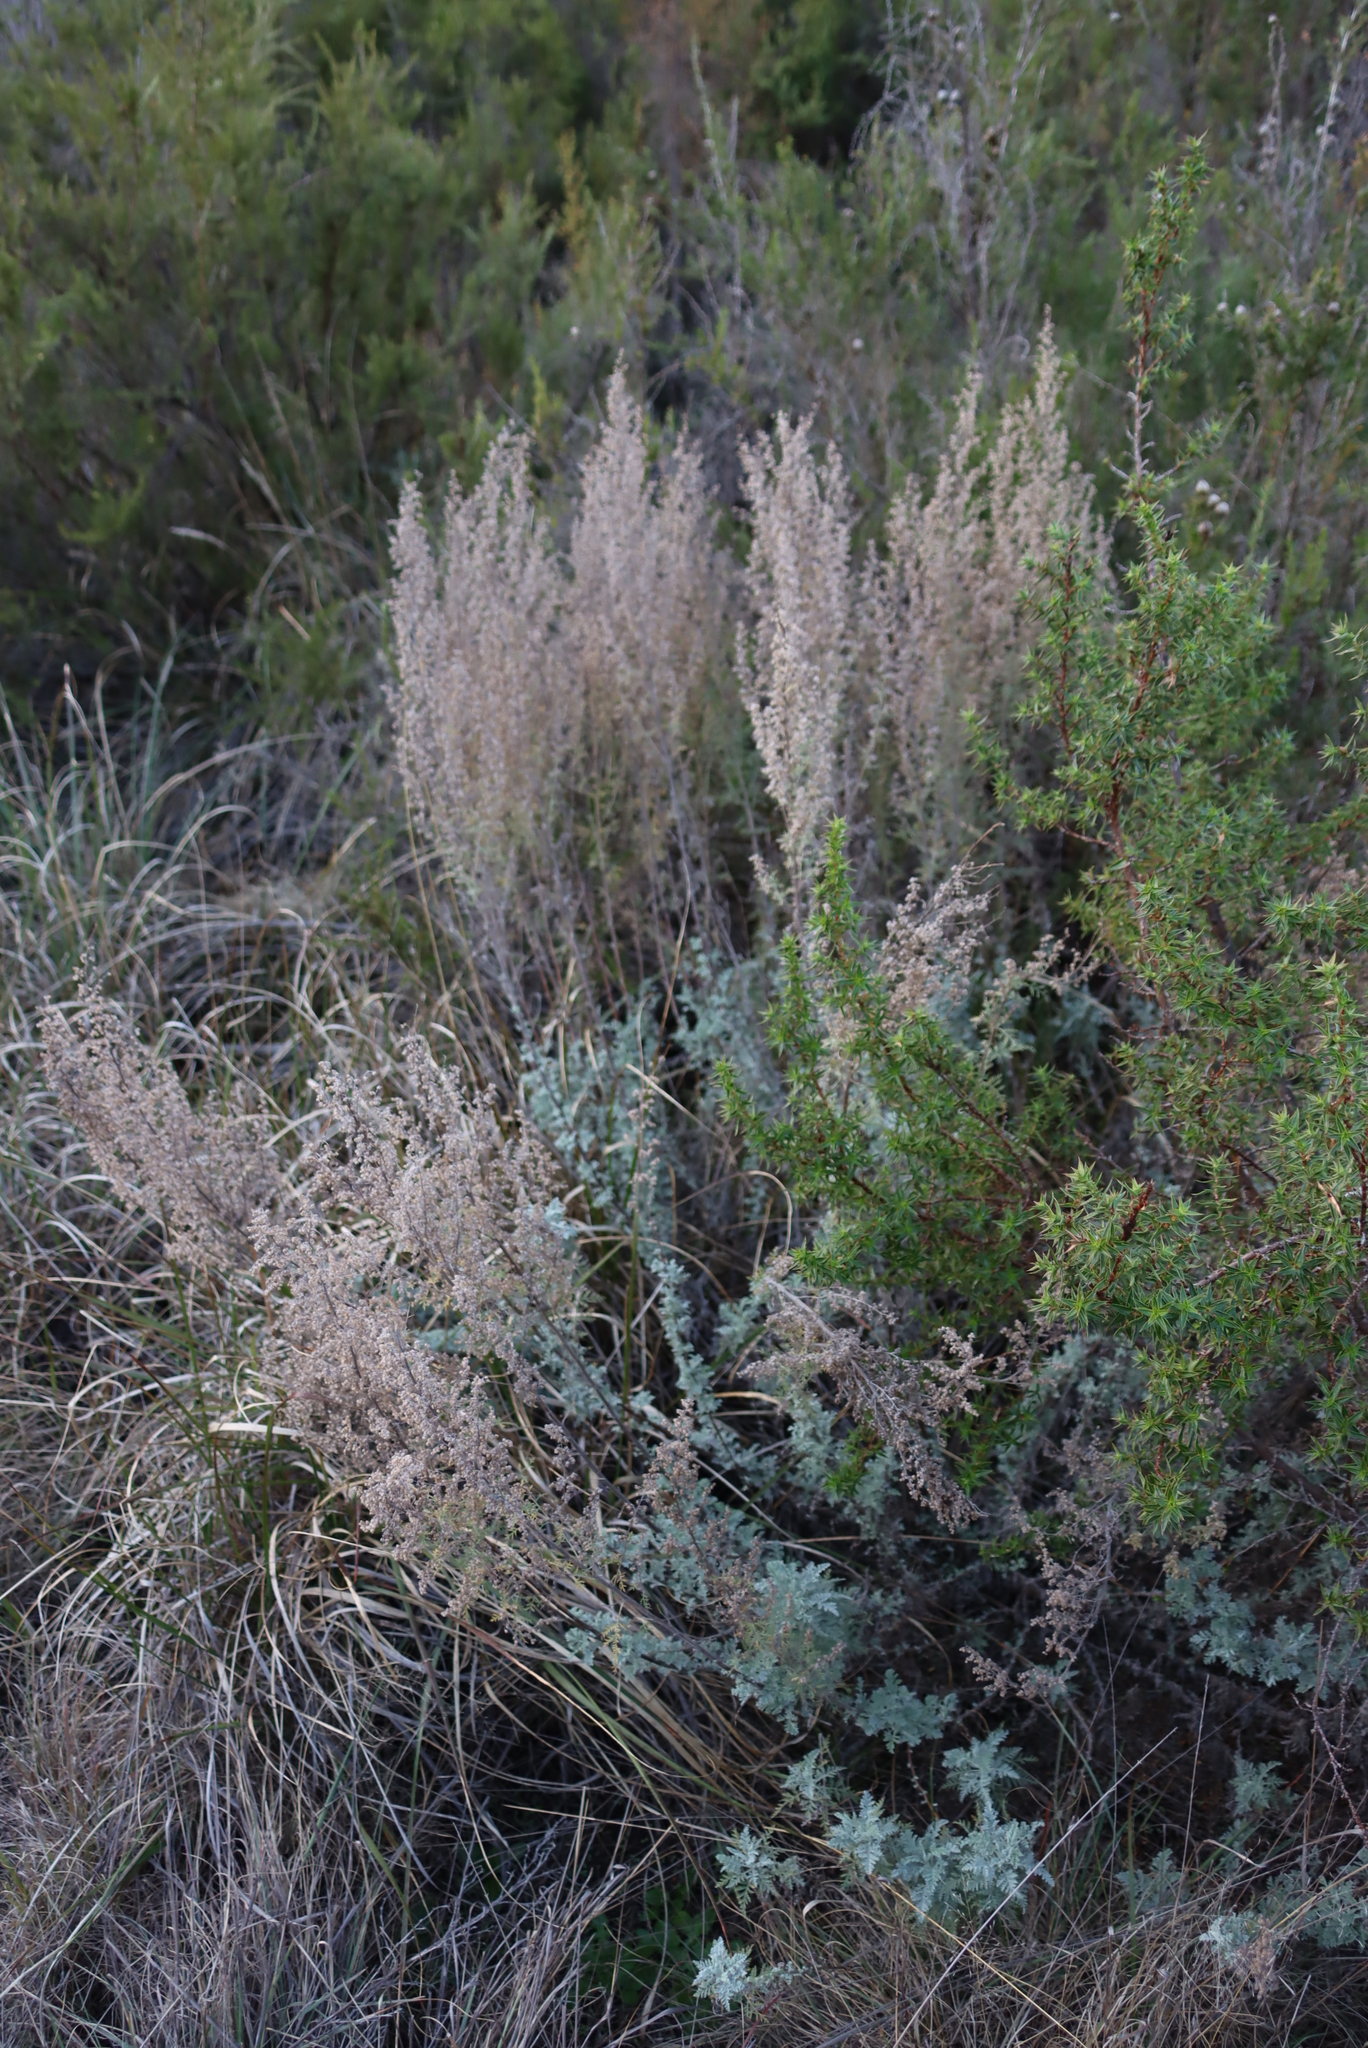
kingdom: Plantae
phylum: Tracheophyta
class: Magnoliopsida
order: Asterales
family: Asteraceae
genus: Artemisia
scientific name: Artemisia afra
